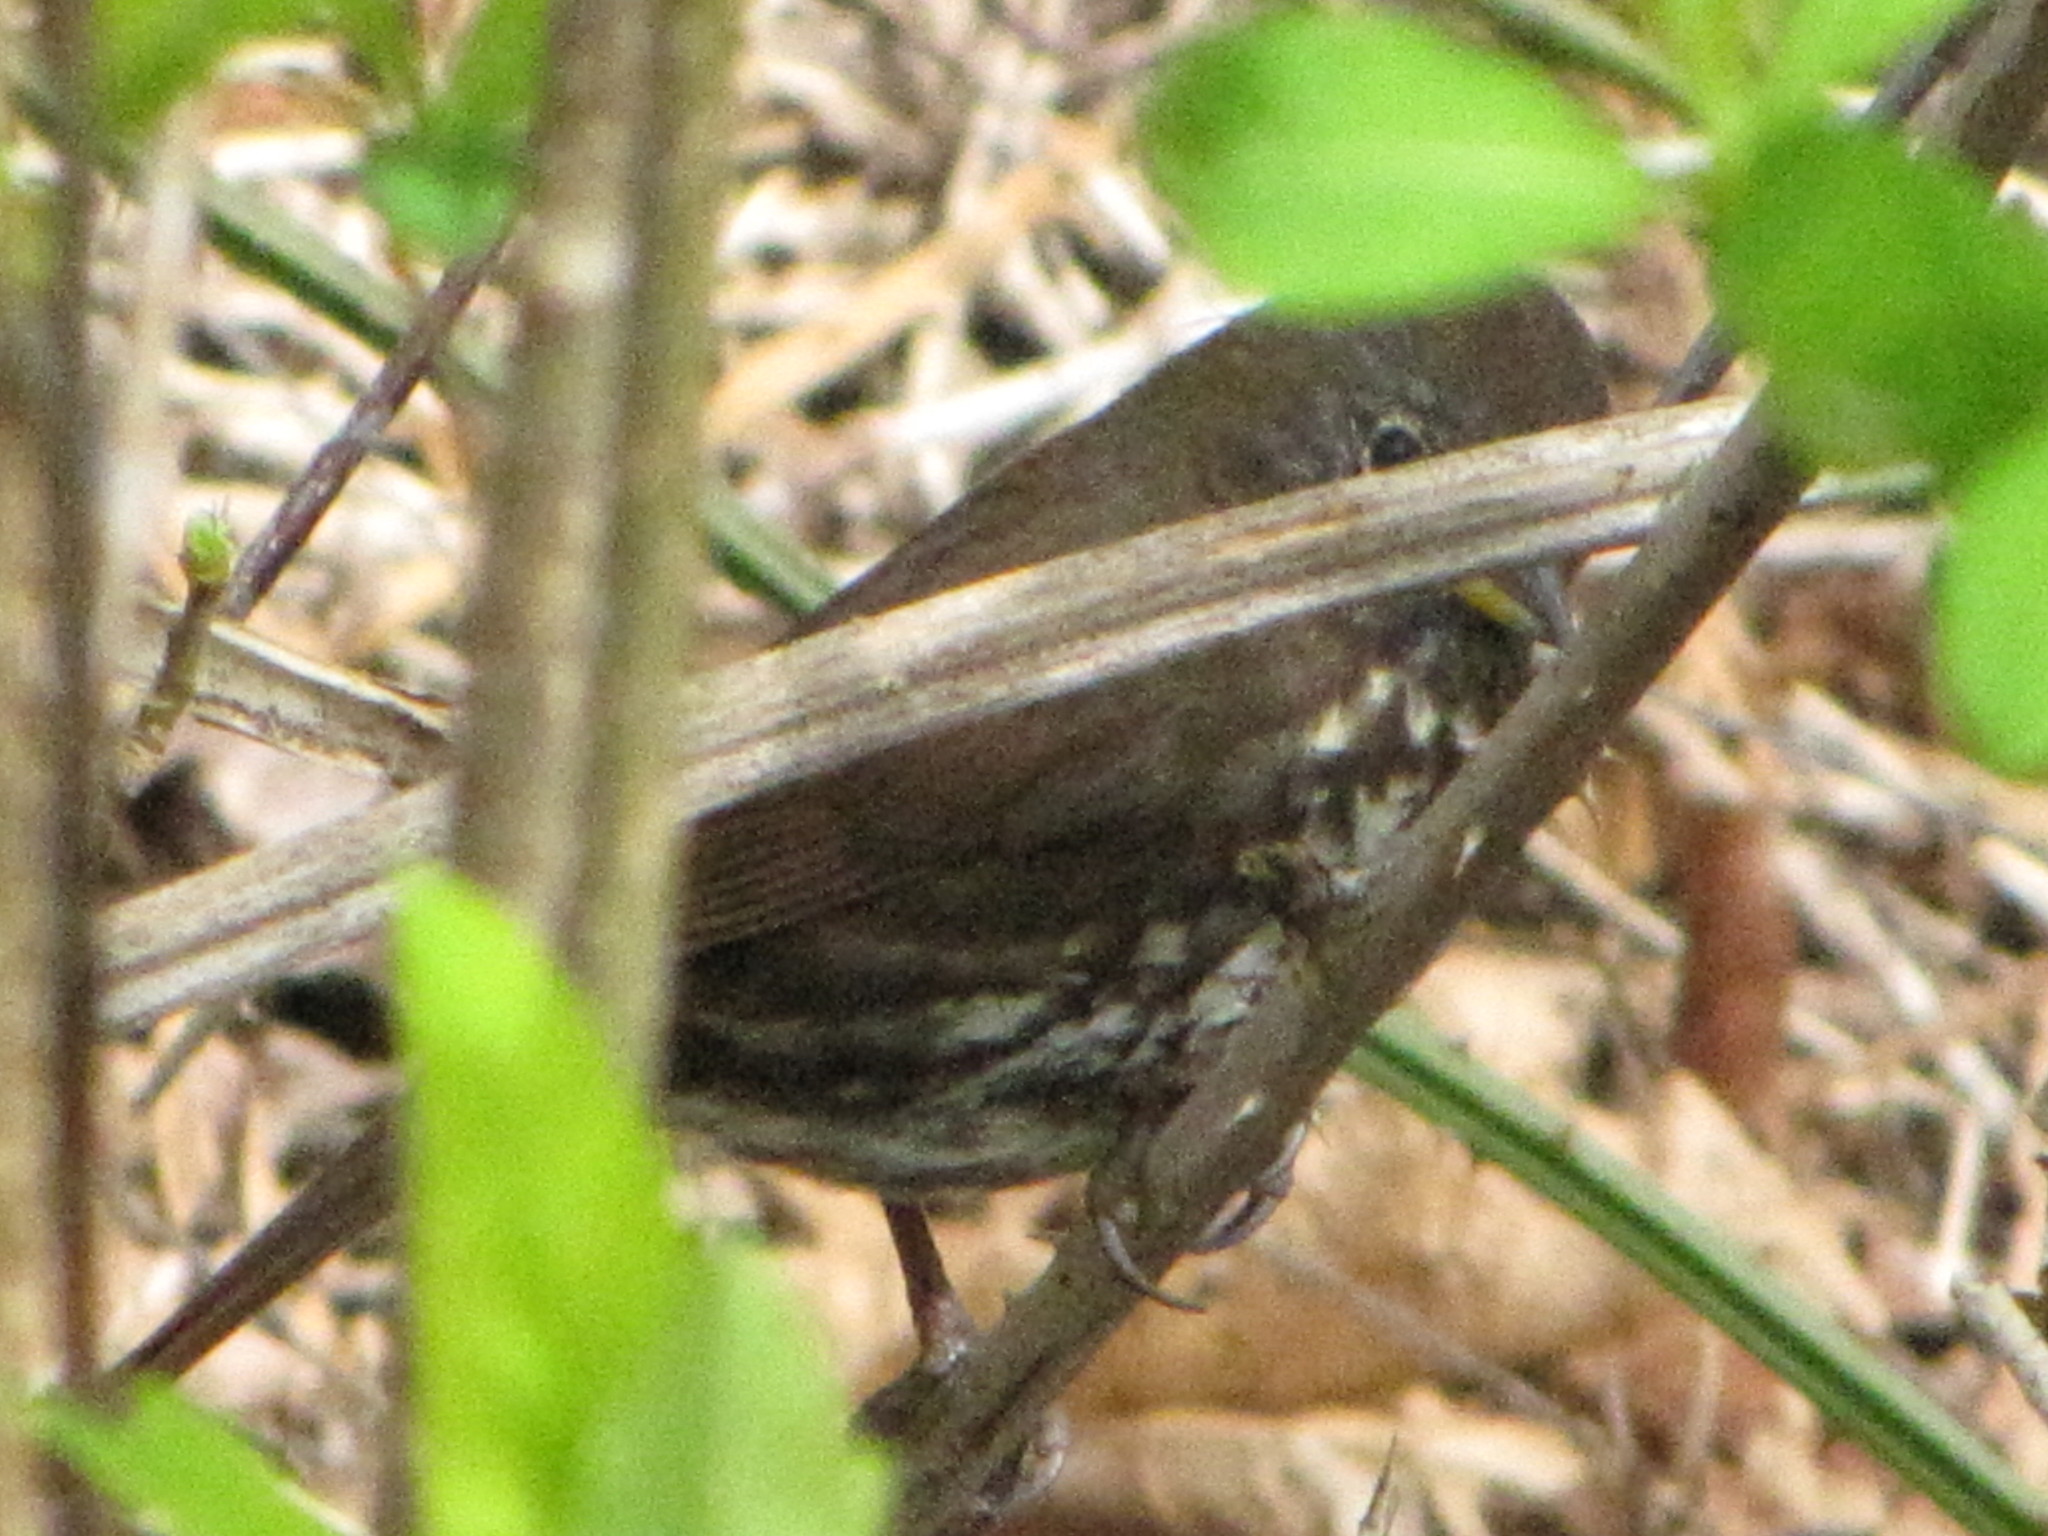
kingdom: Animalia
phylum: Chordata
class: Aves
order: Passeriformes
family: Passerellidae
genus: Passerella
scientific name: Passerella iliaca
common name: Fox sparrow
